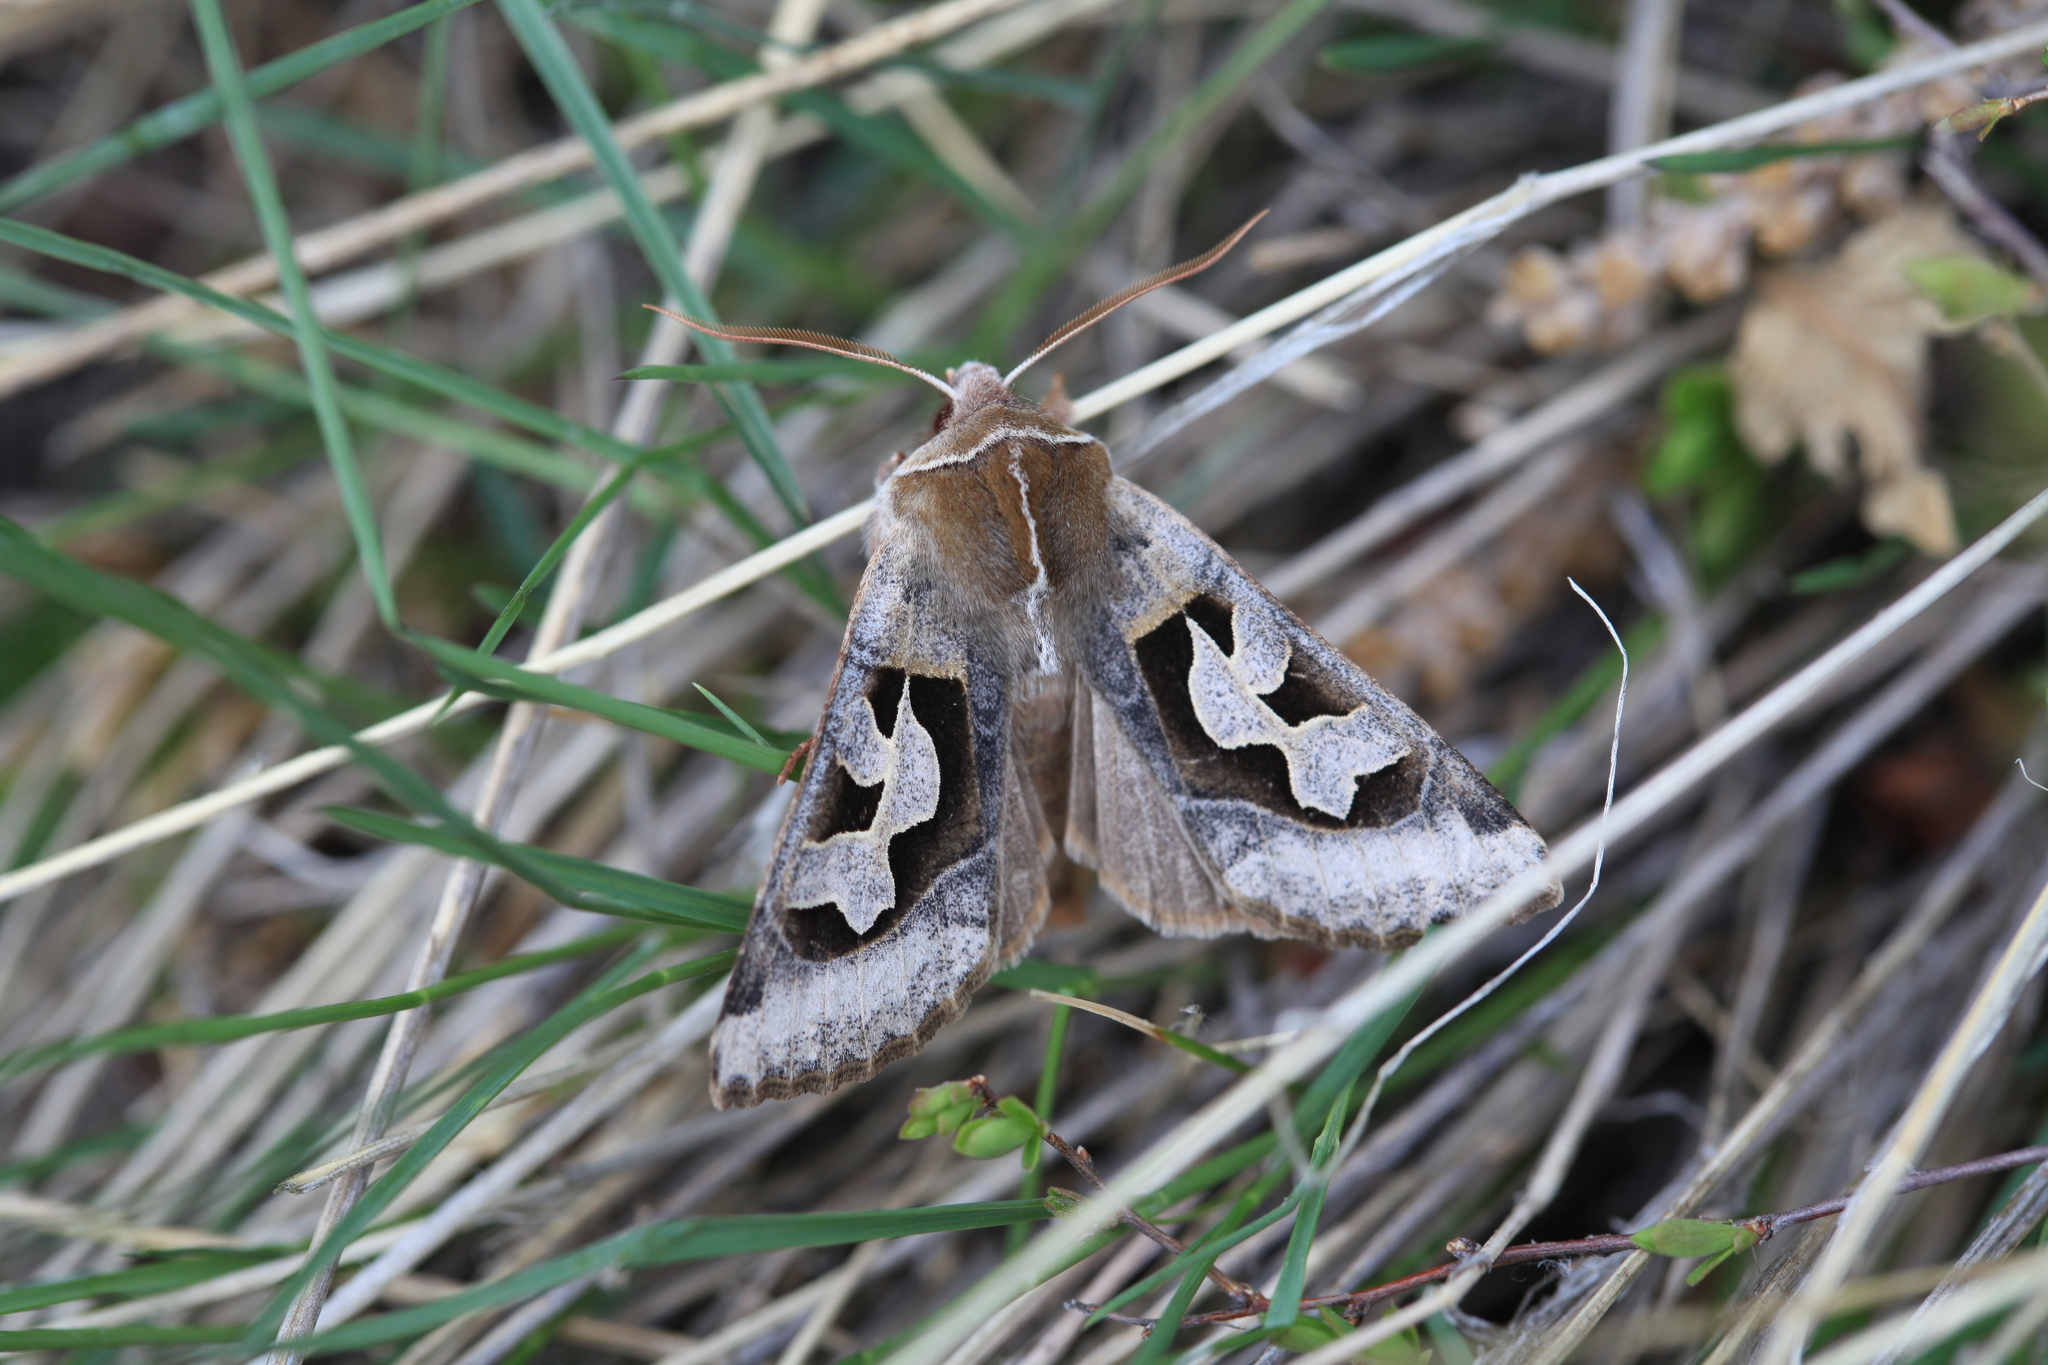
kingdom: Animalia
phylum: Arthropoda
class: Insecta
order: Lepidoptera
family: Noctuidae
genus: Perigrapha
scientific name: Perigrapha circumducta
